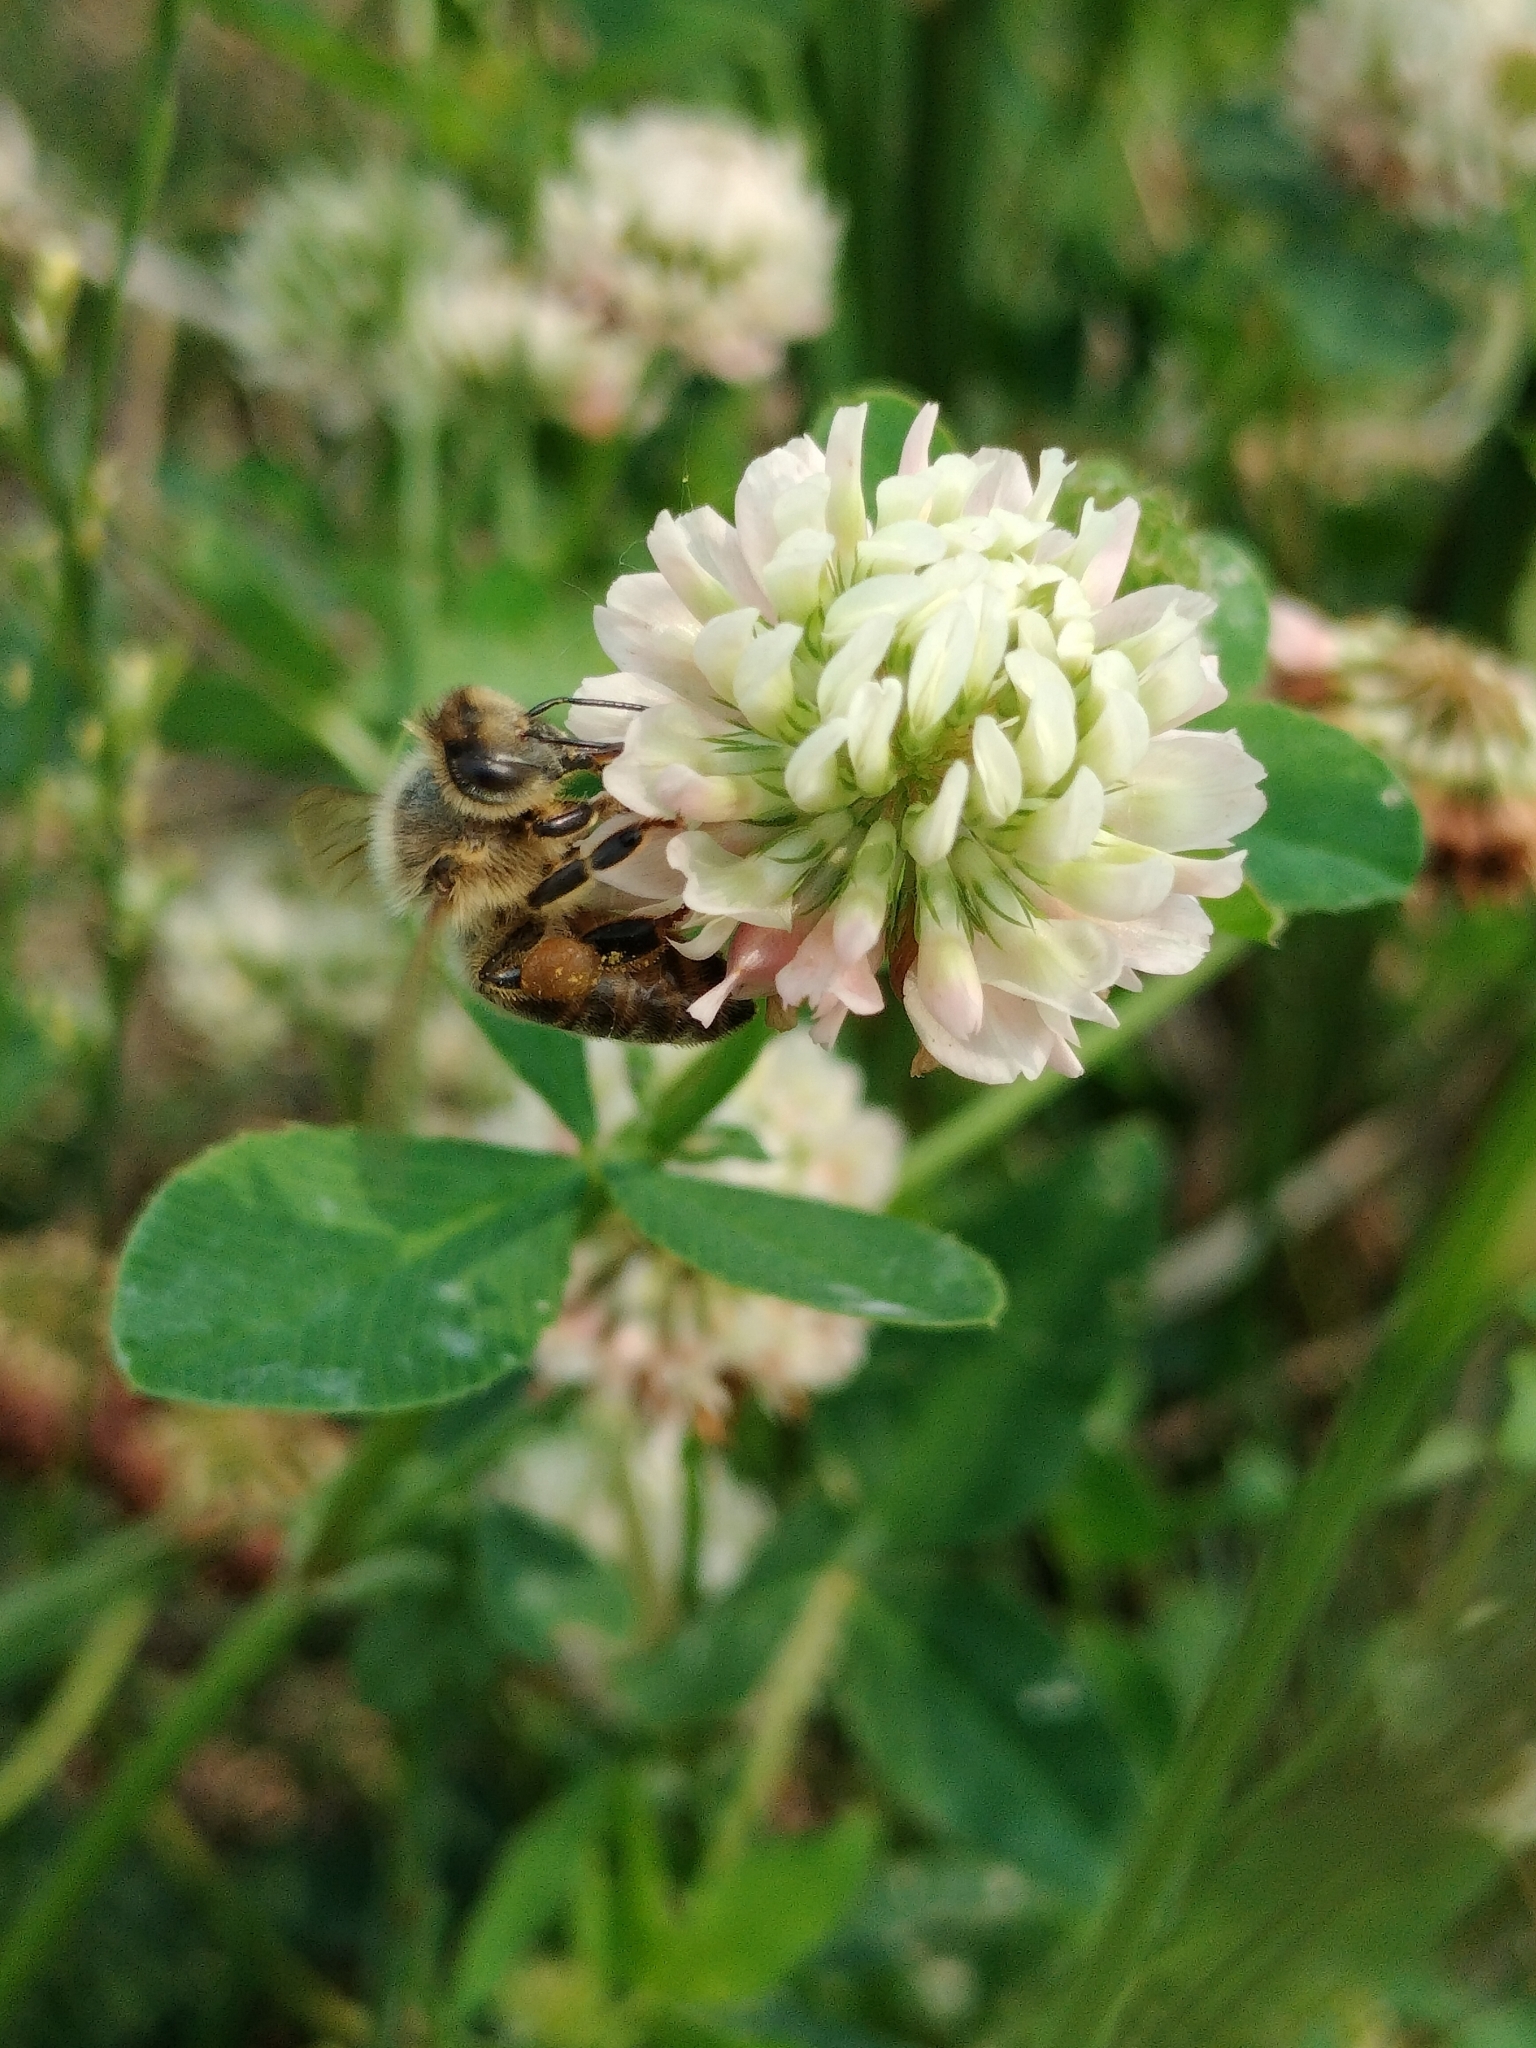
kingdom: Animalia
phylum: Arthropoda
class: Insecta
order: Hymenoptera
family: Apidae
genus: Apis
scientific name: Apis mellifera
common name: Honey bee
